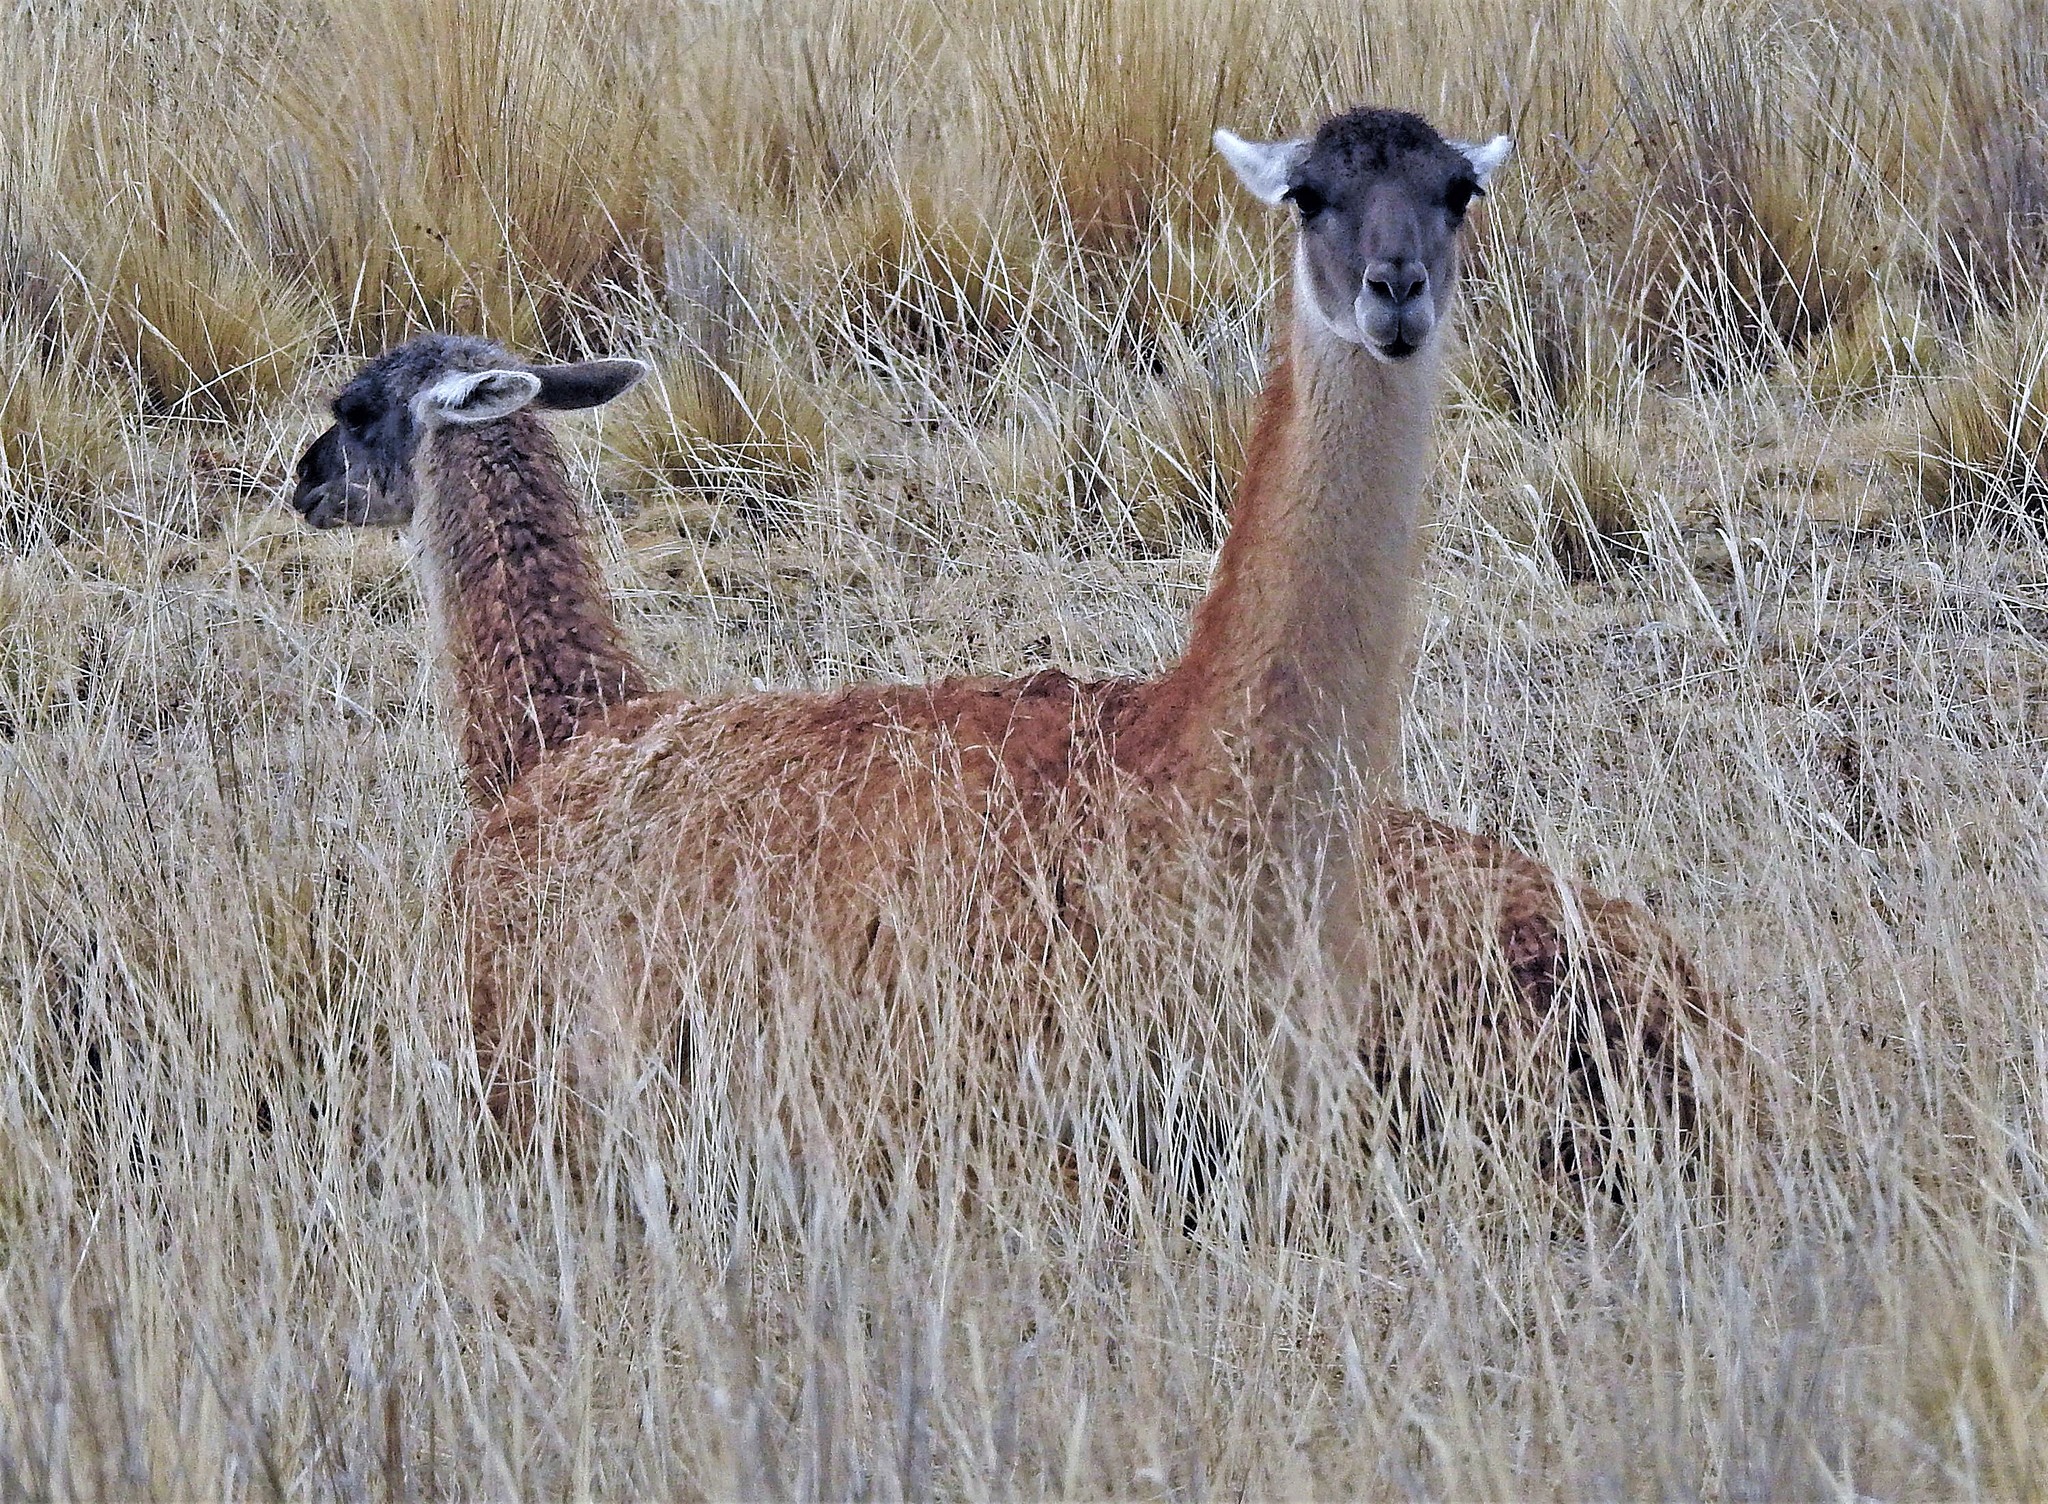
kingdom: Animalia
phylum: Chordata
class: Mammalia
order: Artiodactyla
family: Camelidae
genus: Lama
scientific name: Lama glama
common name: Llama
